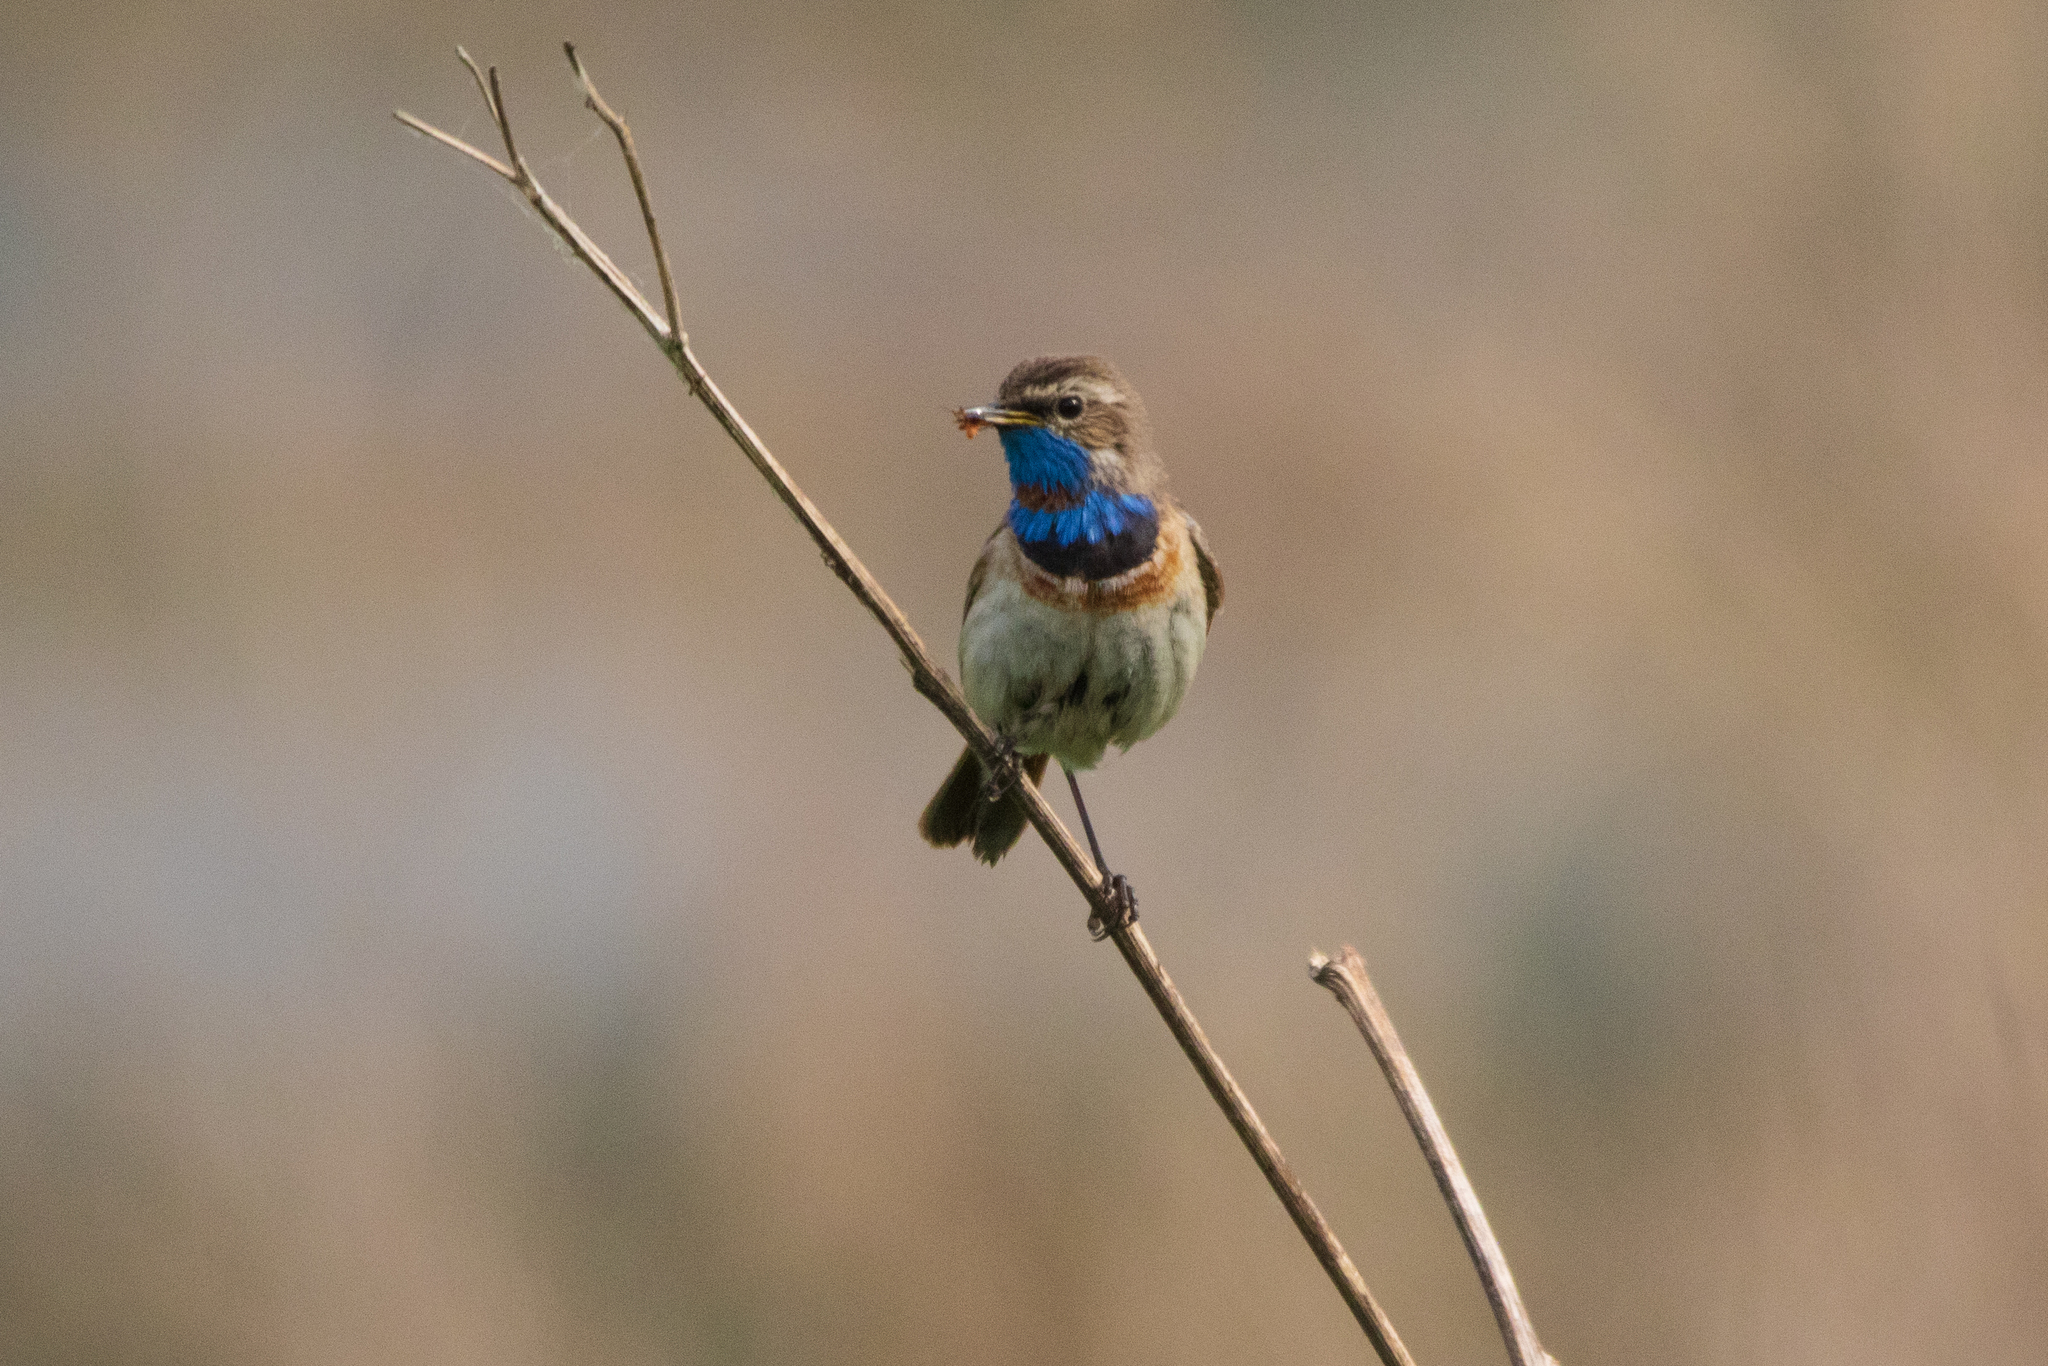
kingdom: Animalia
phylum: Chordata
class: Aves
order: Passeriformes
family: Muscicapidae
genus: Luscinia
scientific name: Luscinia svecica
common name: Bluethroat
